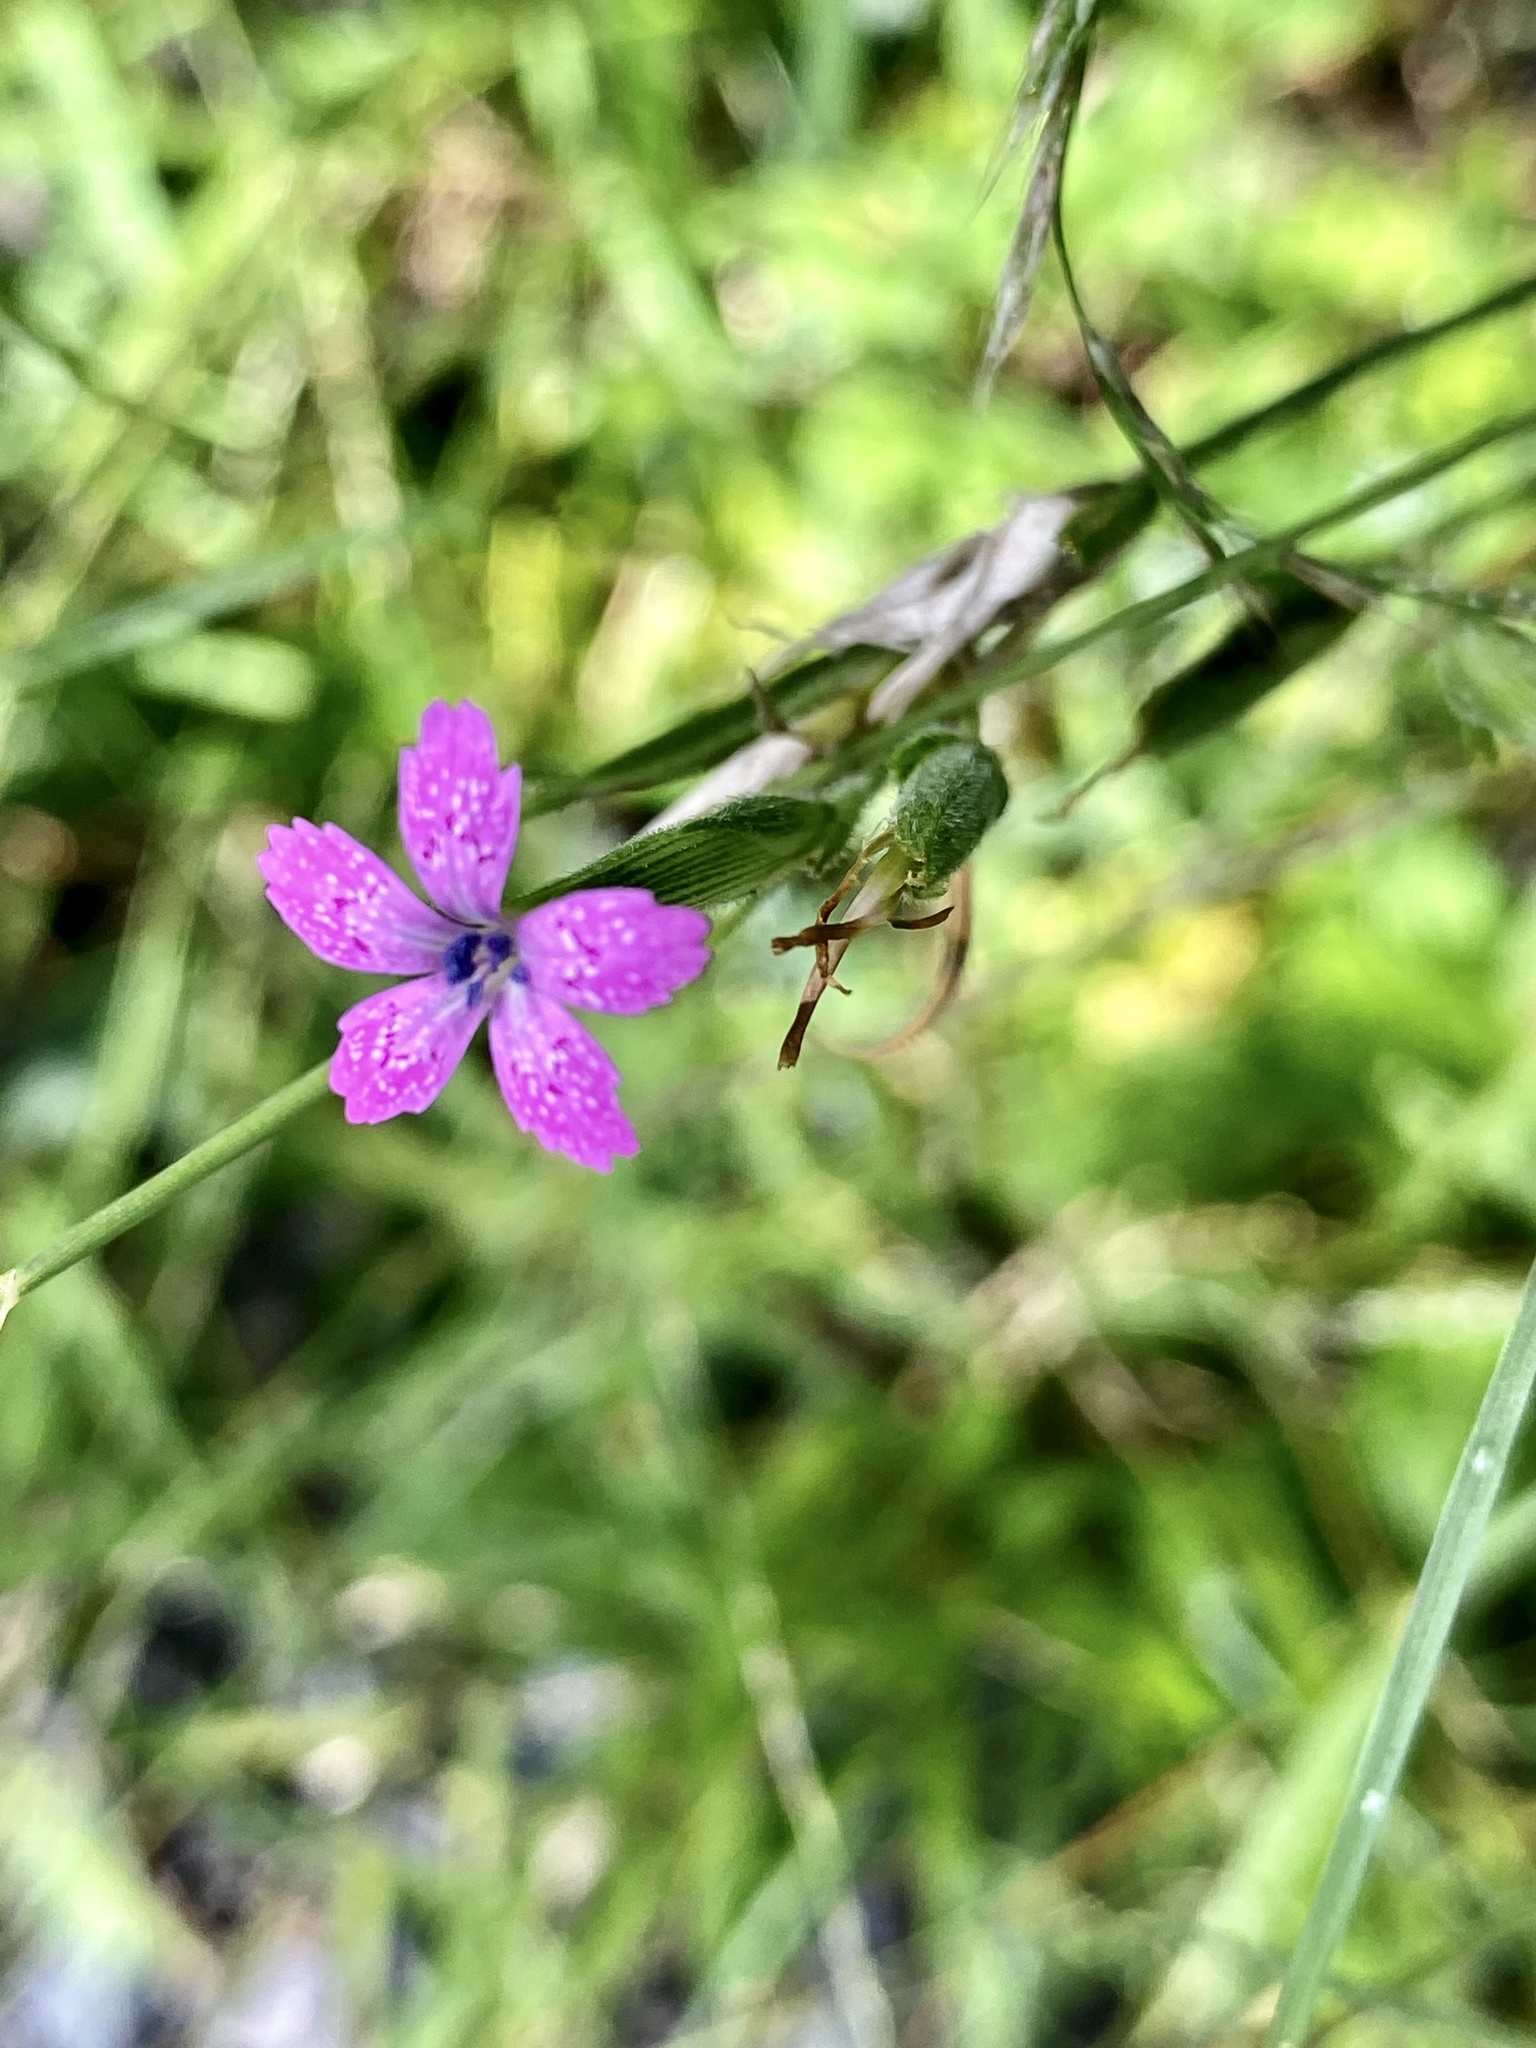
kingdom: Plantae
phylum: Tracheophyta
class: Magnoliopsida
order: Caryophyllales
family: Caryophyllaceae
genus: Dianthus
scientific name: Dianthus armeria
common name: Deptford pink
